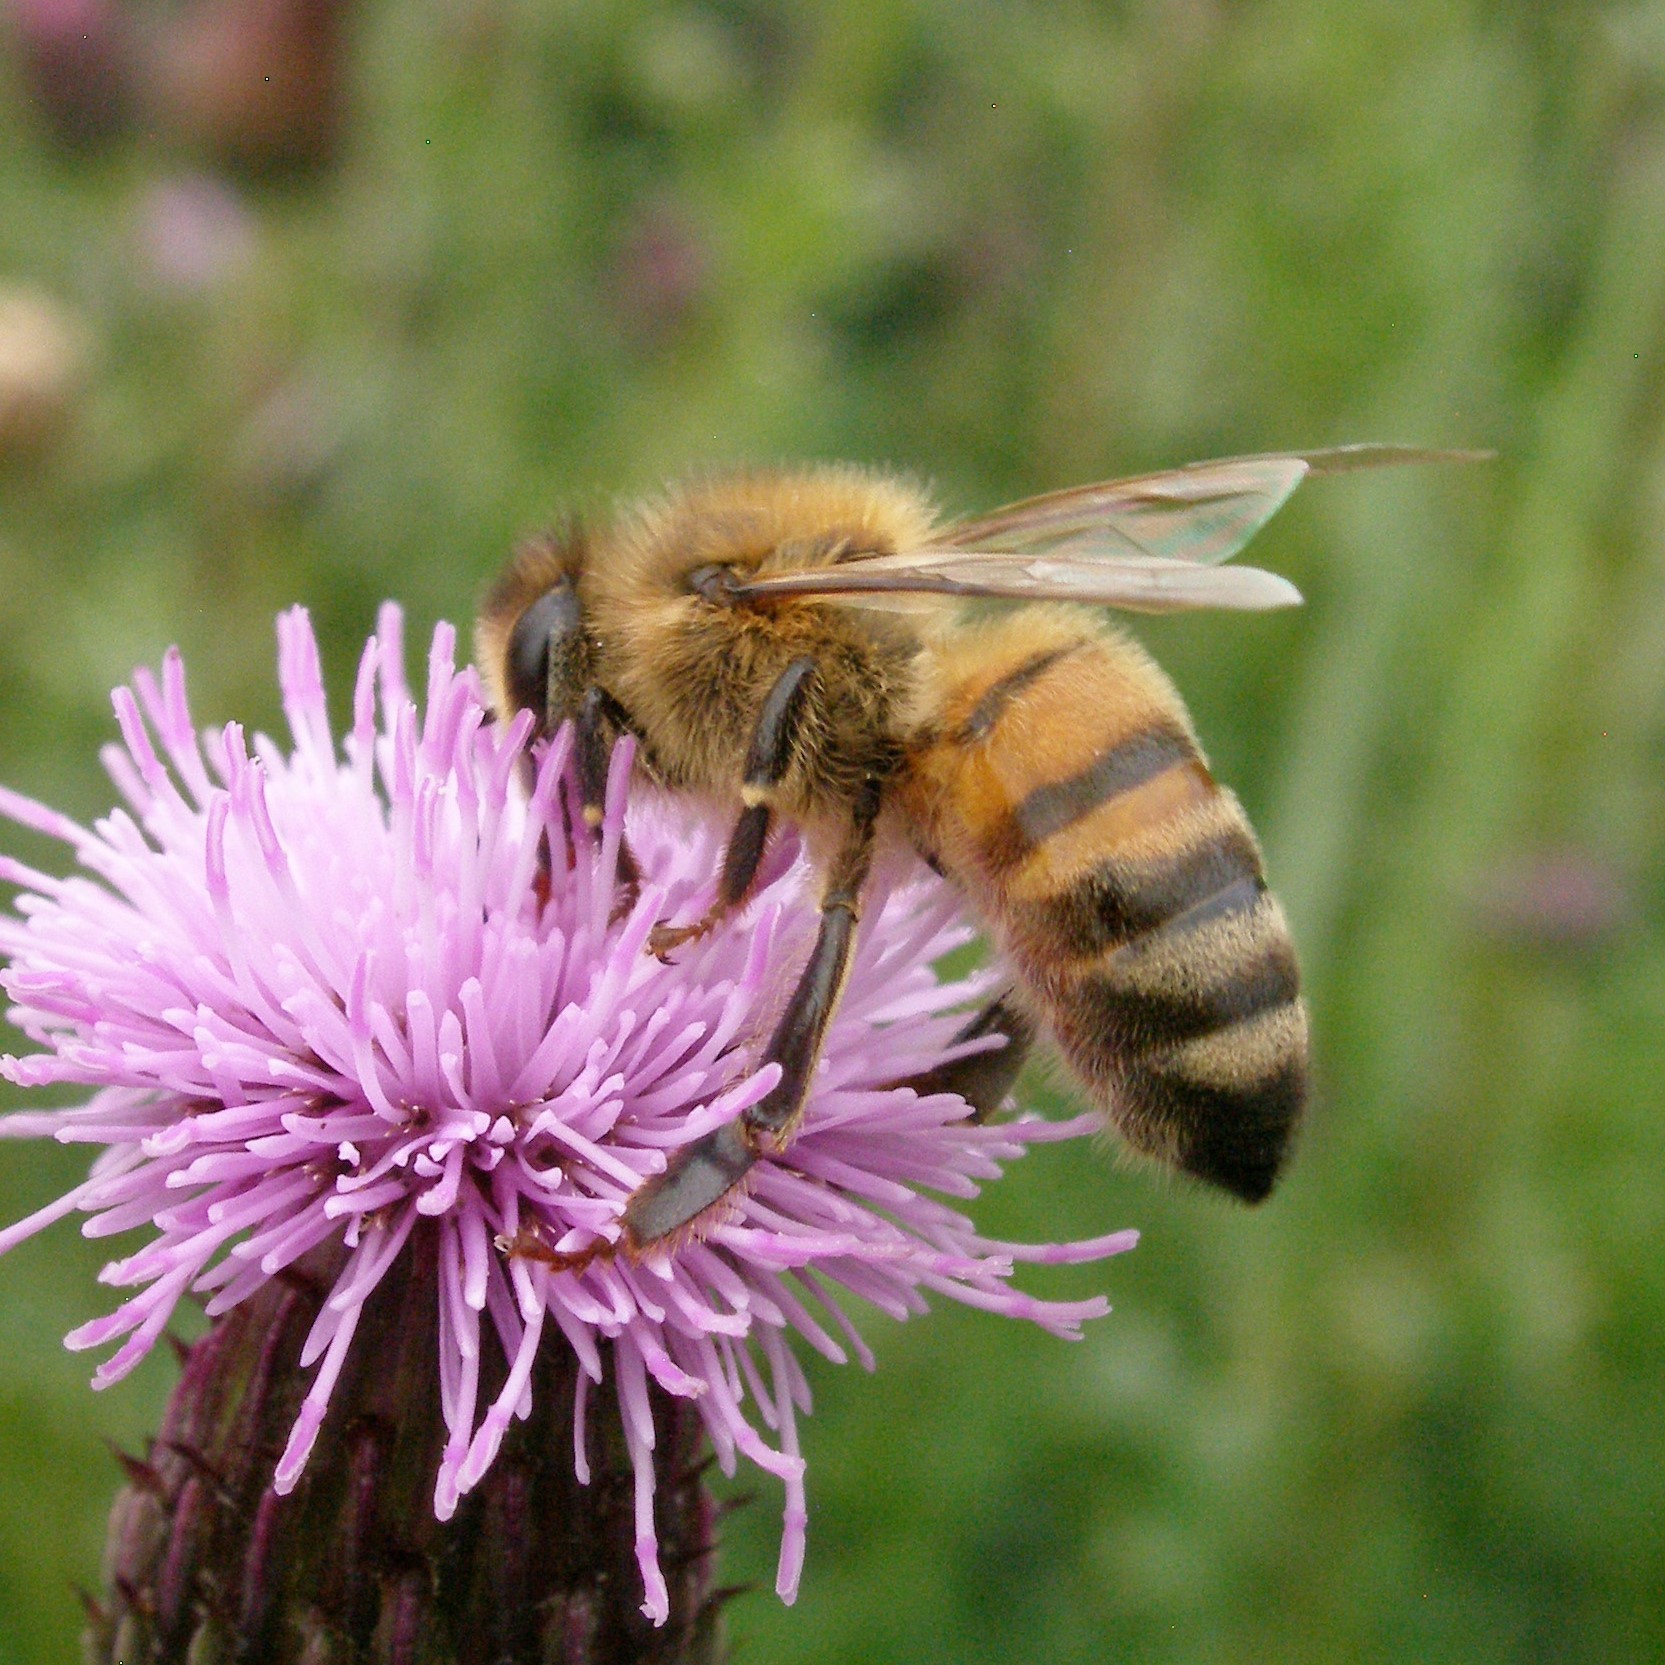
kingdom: Animalia
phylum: Arthropoda
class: Insecta
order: Hymenoptera
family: Apidae
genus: Apis
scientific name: Apis mellifera
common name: Honey bee
